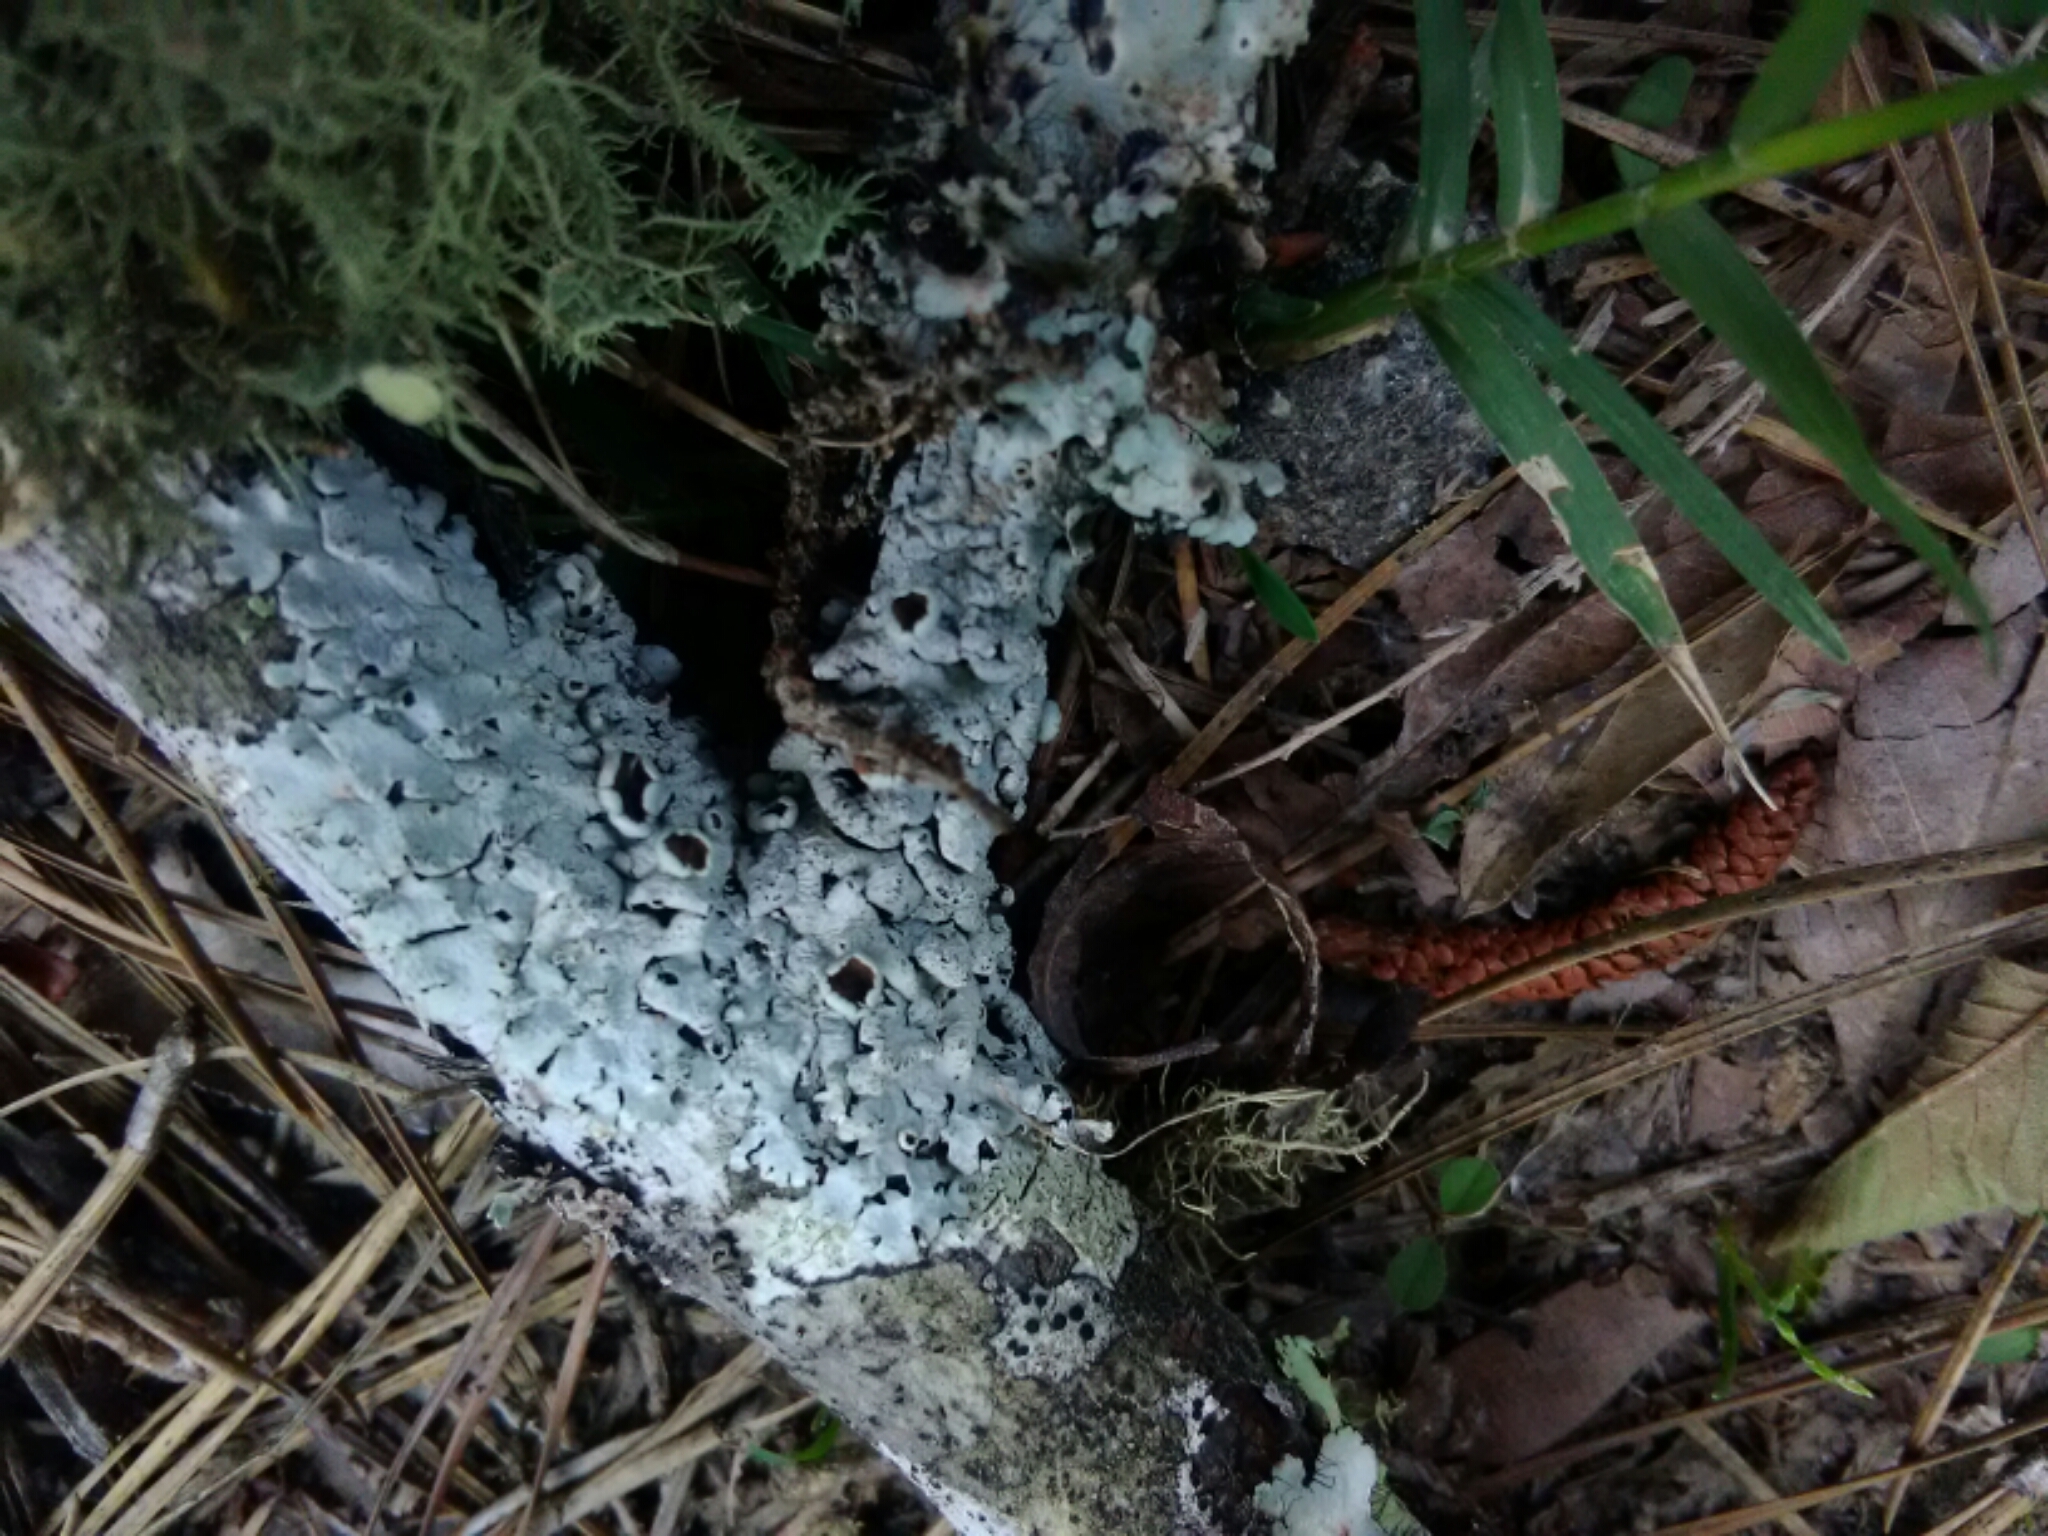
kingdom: Fungi
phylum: Ascomycota
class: Lecanoromycetes
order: Lecanorales
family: Parmeliaceae
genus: Hypotrachyna
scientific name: Hypotrachyna livida
